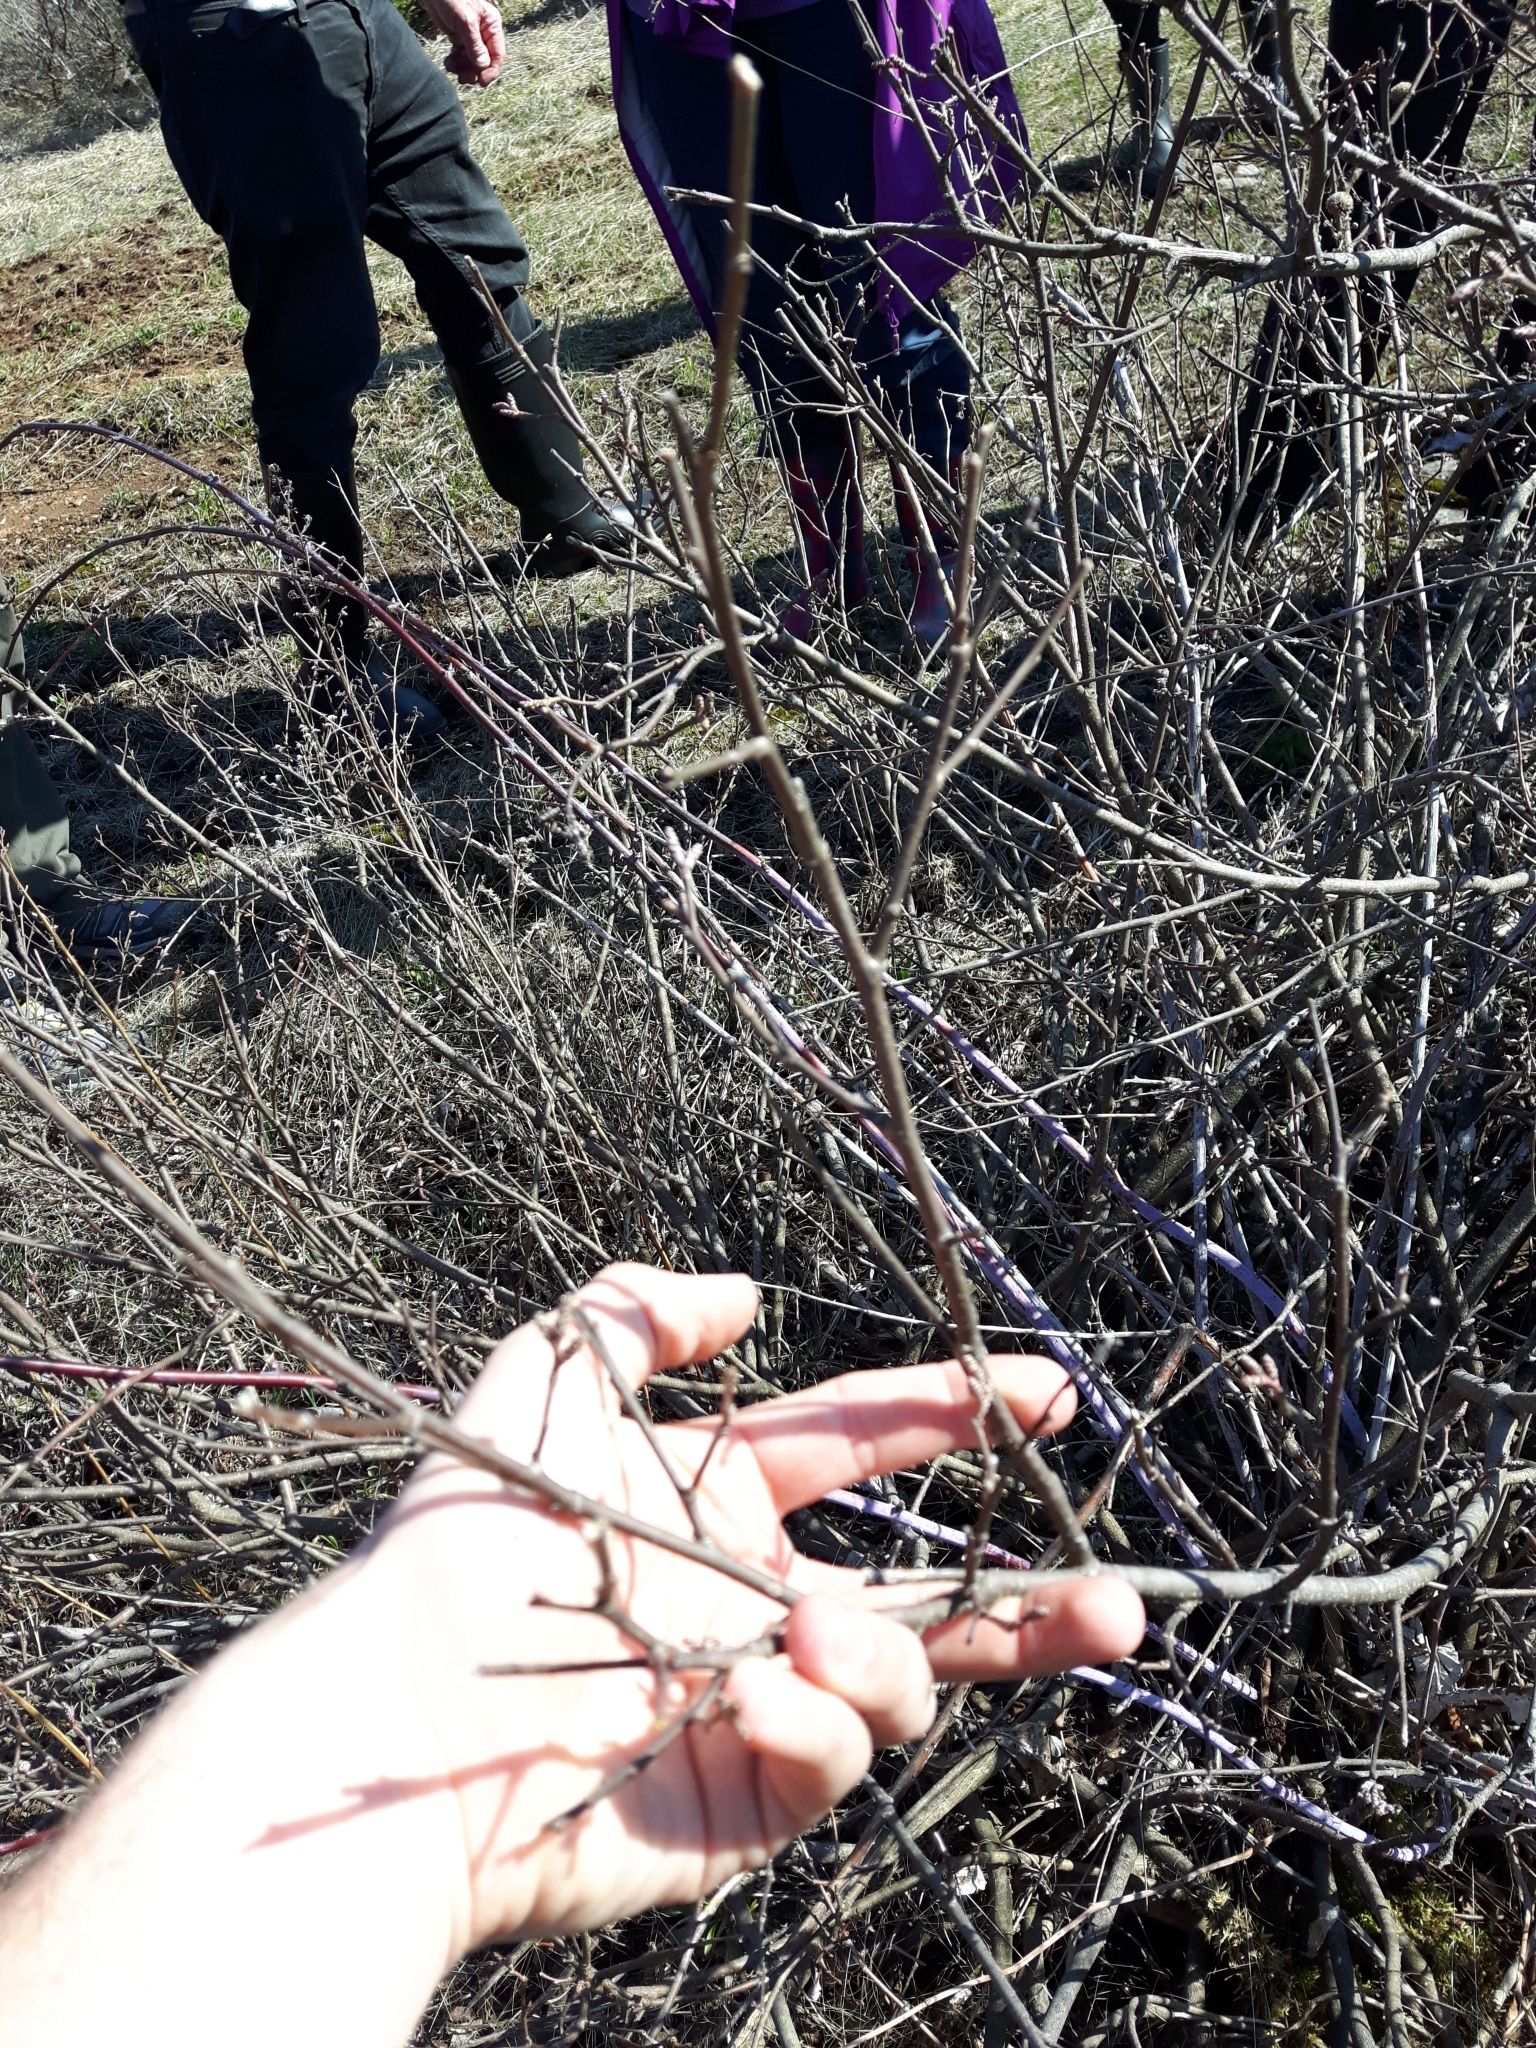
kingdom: Plantae
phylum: Tracheophyta
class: Magnoliopsida
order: Sapindales
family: Anacardiaceae
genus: Rhus
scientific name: Rhus aromatica
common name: Aromatic sumac
